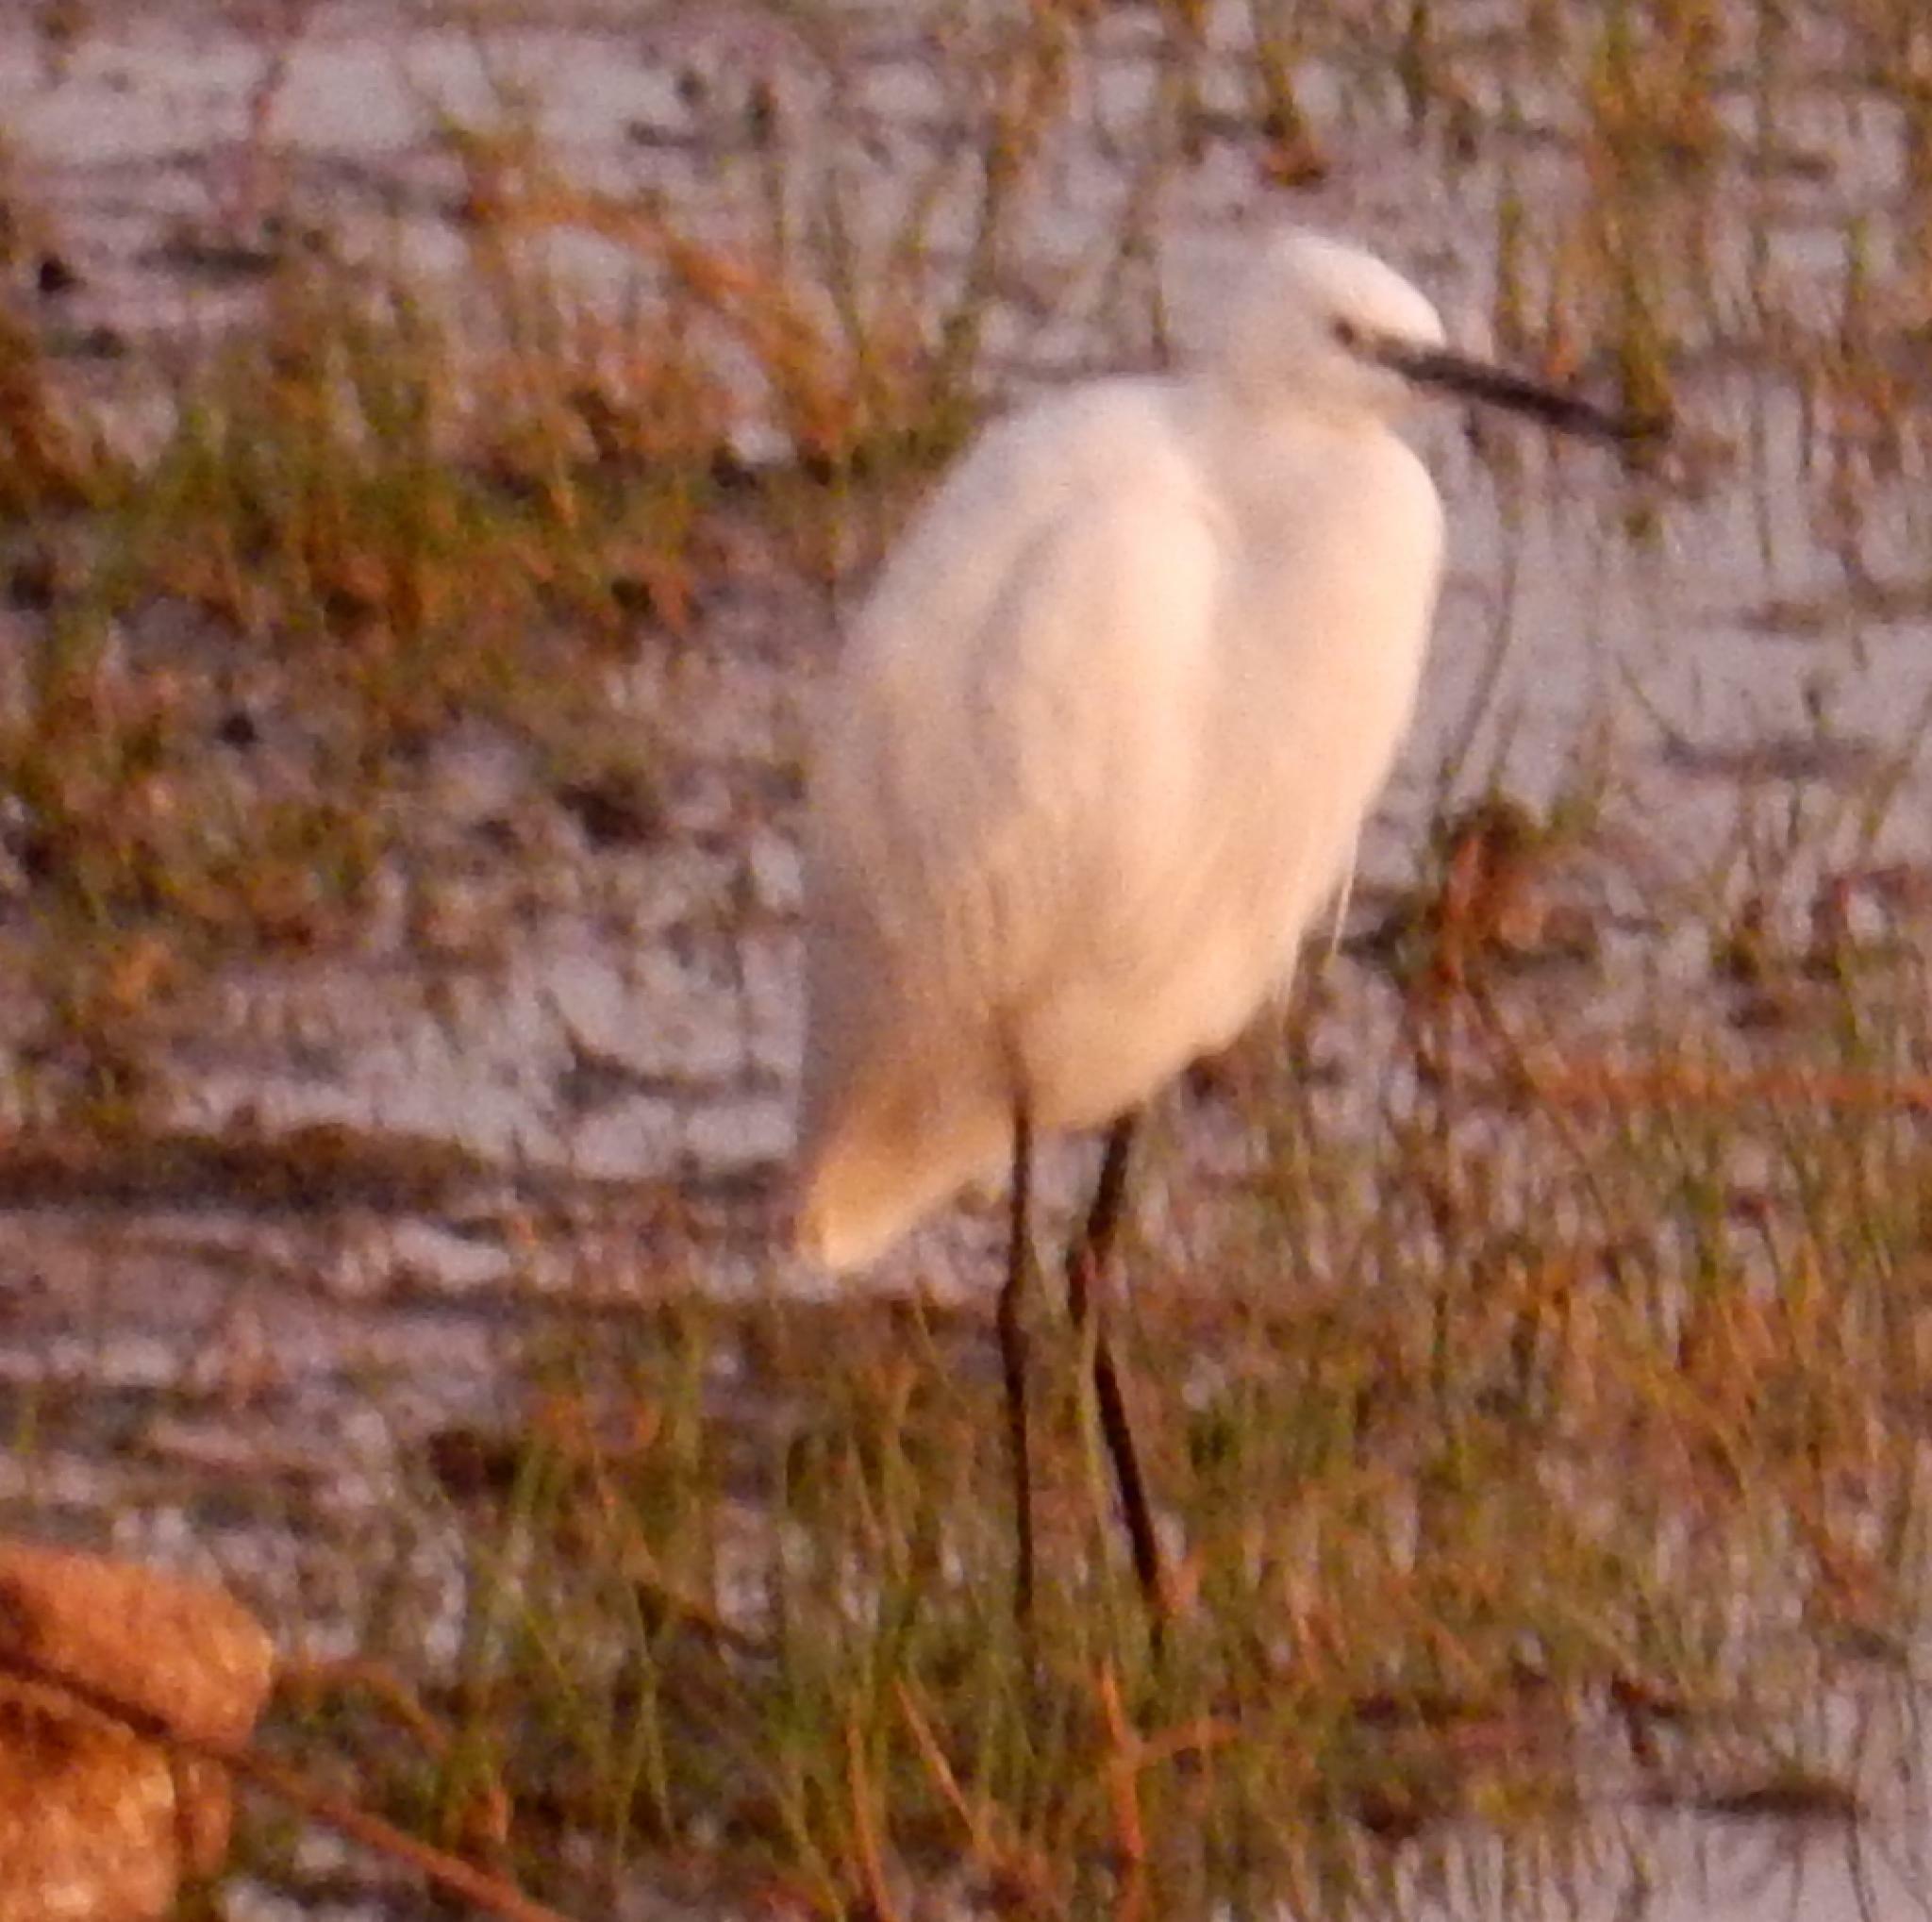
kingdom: Animalia
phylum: Chordata
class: Aves
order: Pelecaniformes
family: Ardeidae
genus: Egretta
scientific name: Egretta garzetta
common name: Little egret
